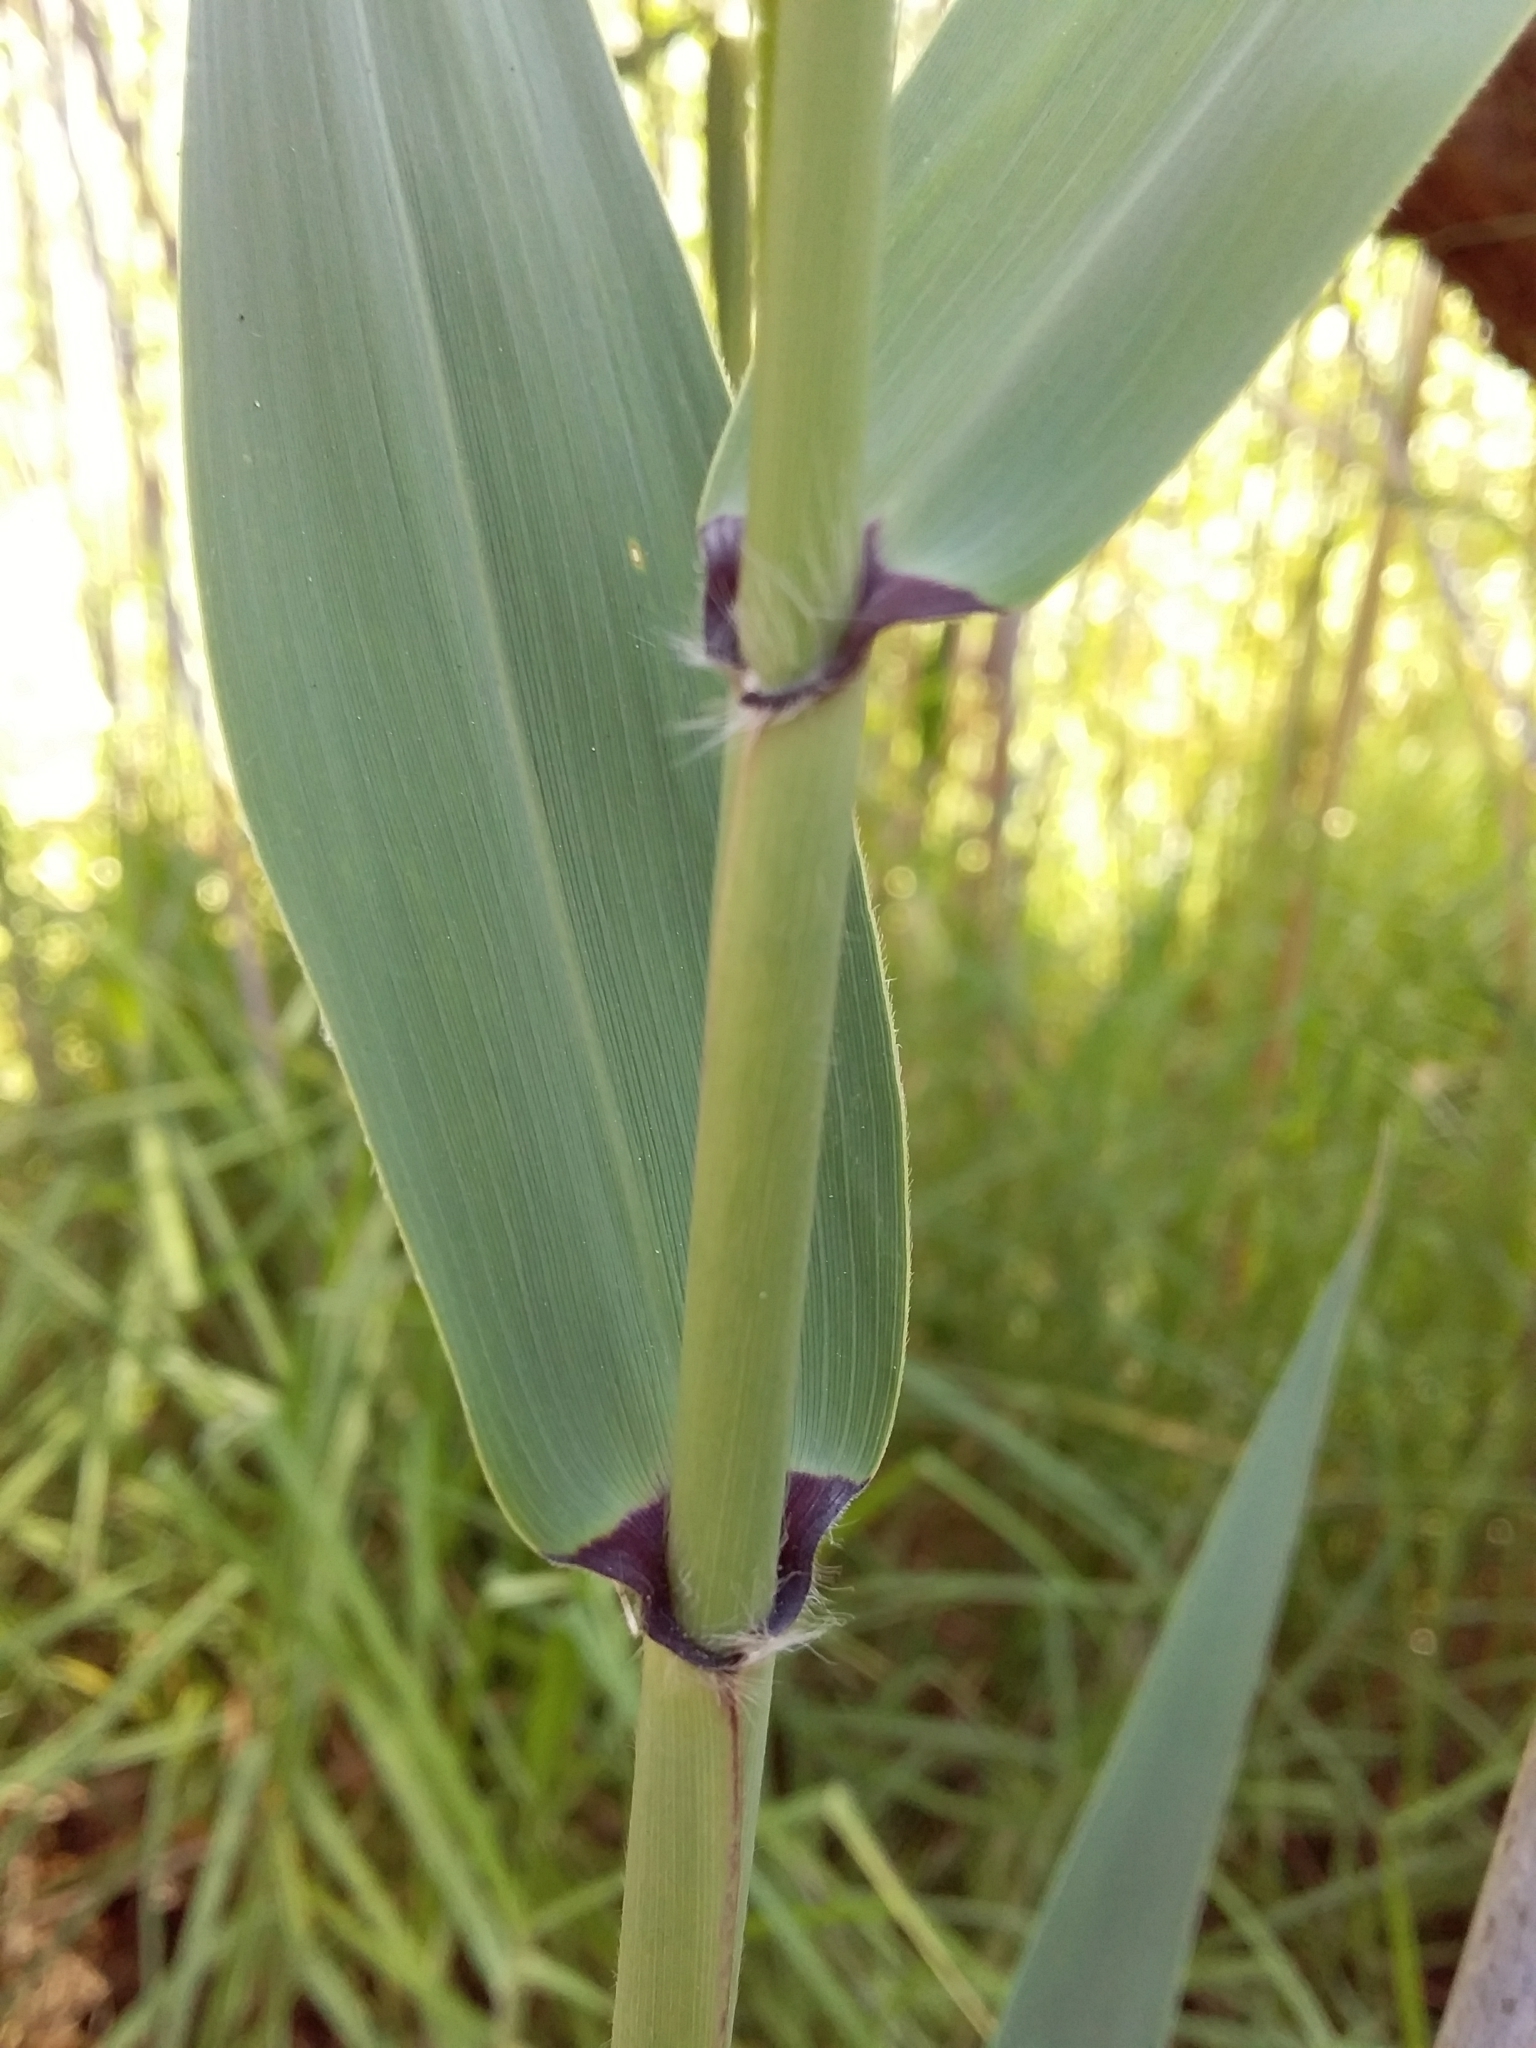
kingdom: Plantae
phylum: Tracheophyta
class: Liliopsida
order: Poales
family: Poaceae
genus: Phragmites
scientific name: Phragmites australis
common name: Common reed
